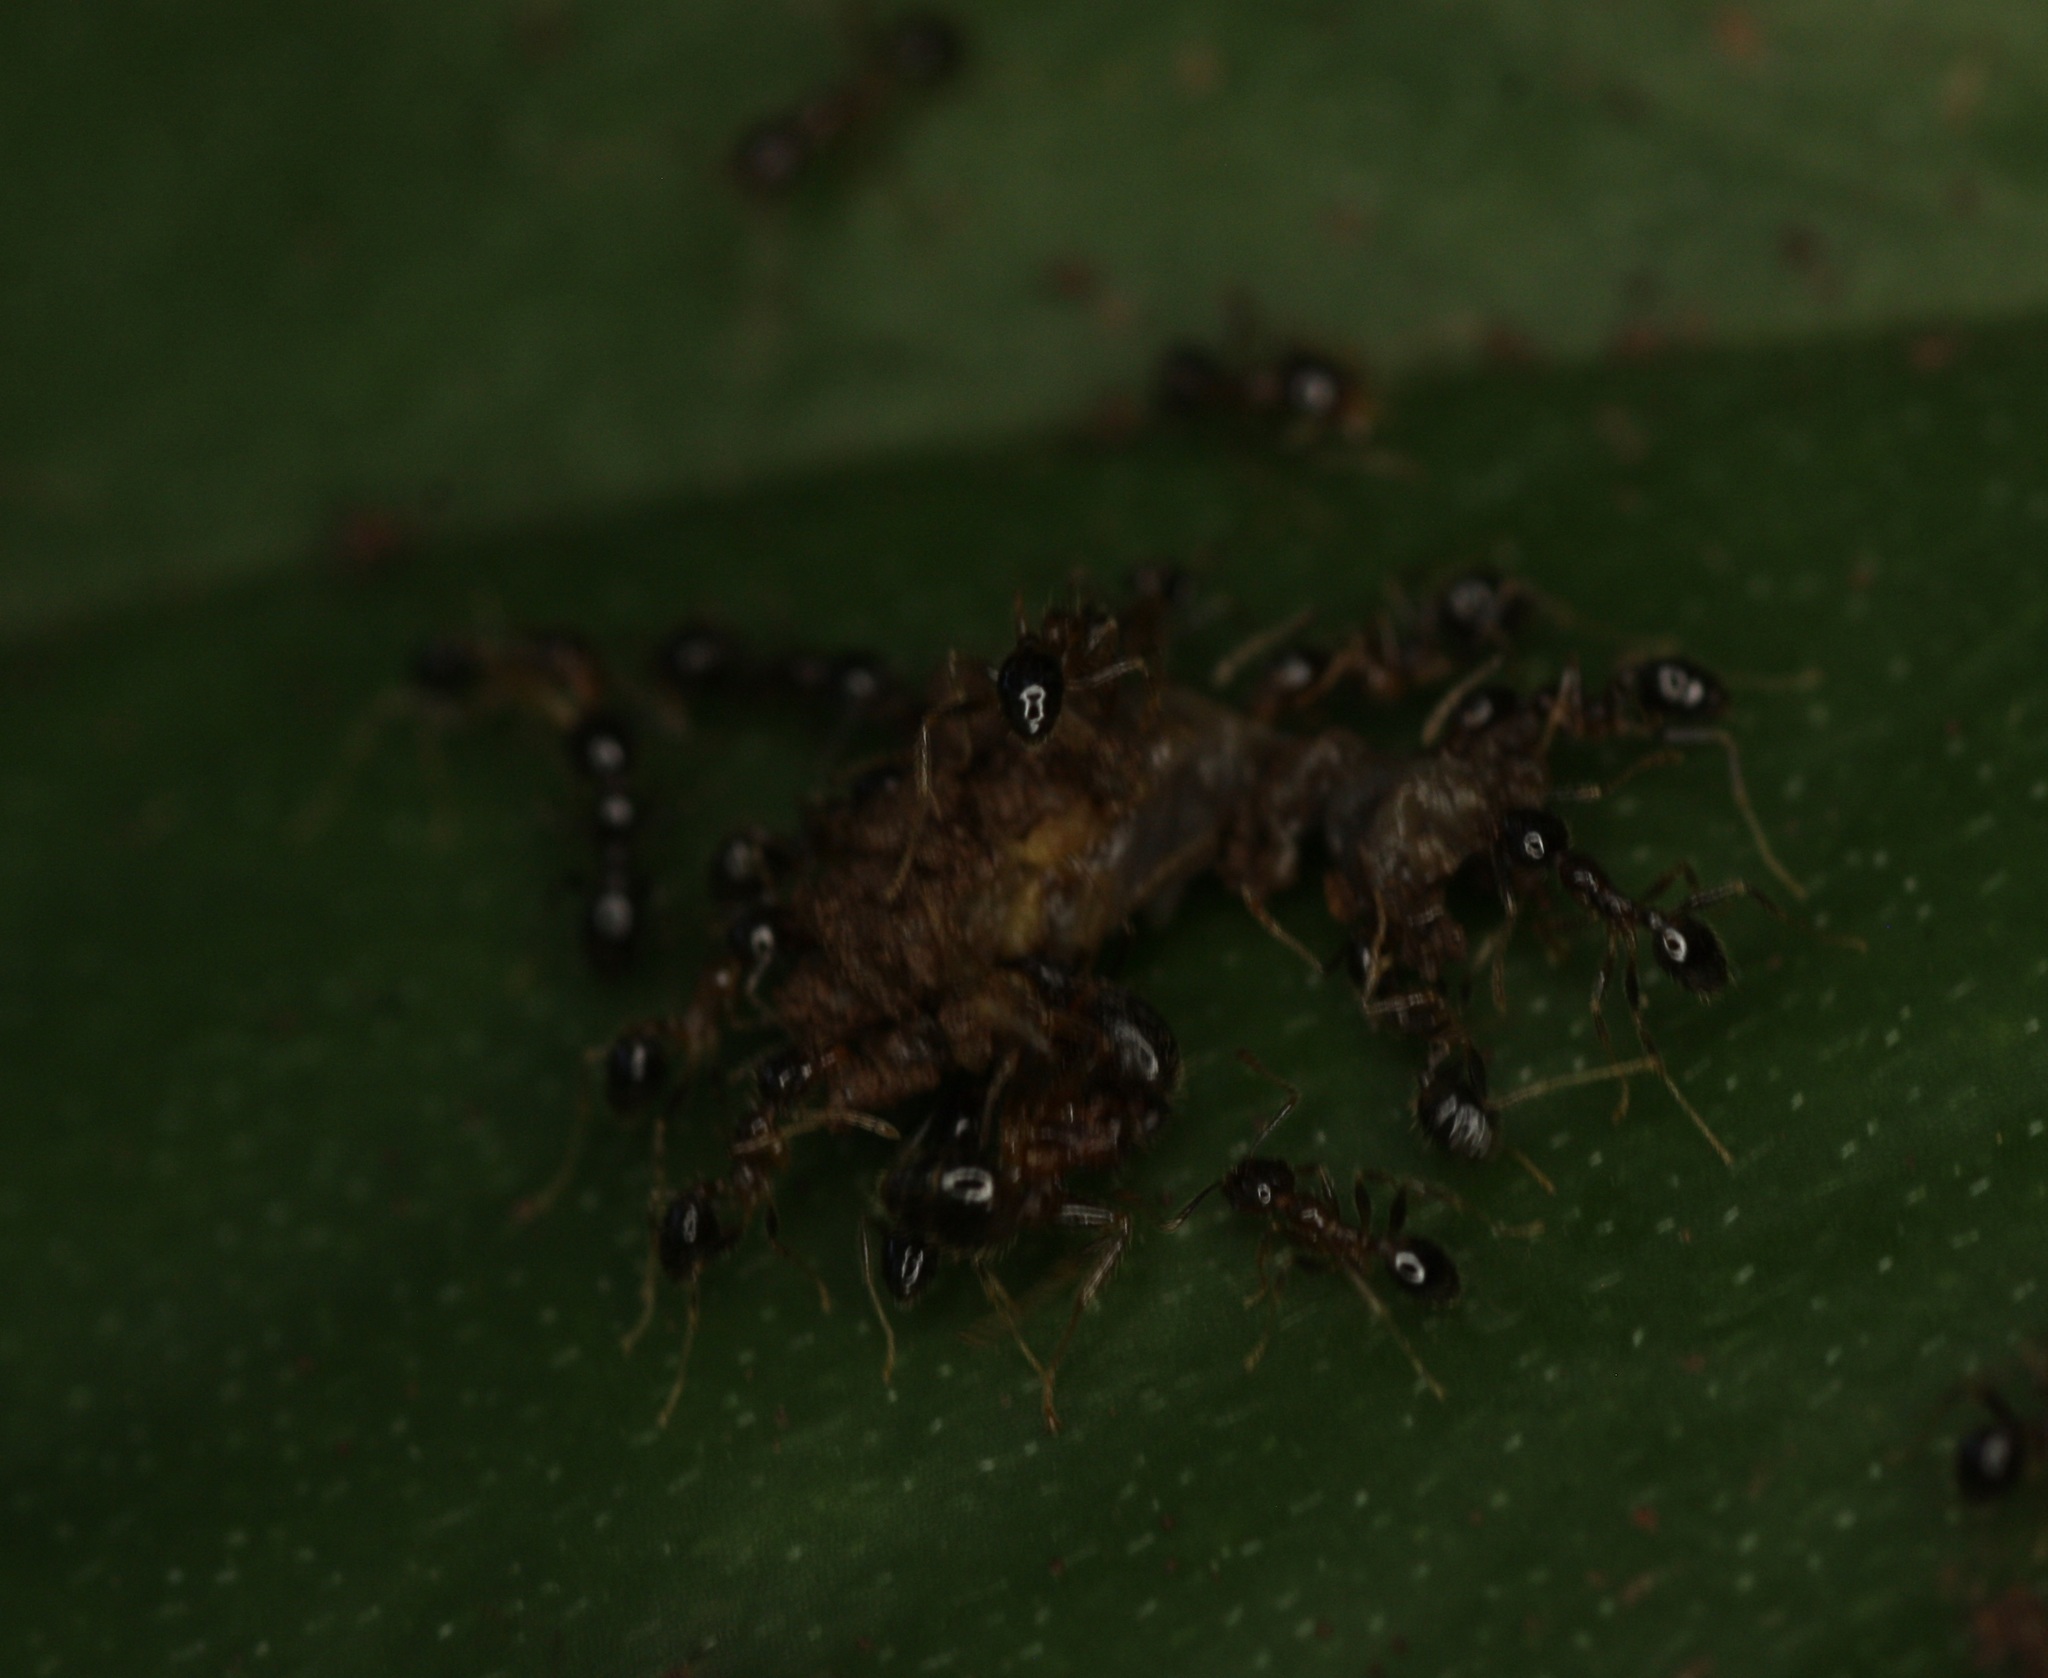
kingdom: Animalia
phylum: Arthropoda
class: Insecta
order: Hymenoptera
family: Formicidae
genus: Pheidole
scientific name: Pheidole megacephala
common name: Bigheaded ant
